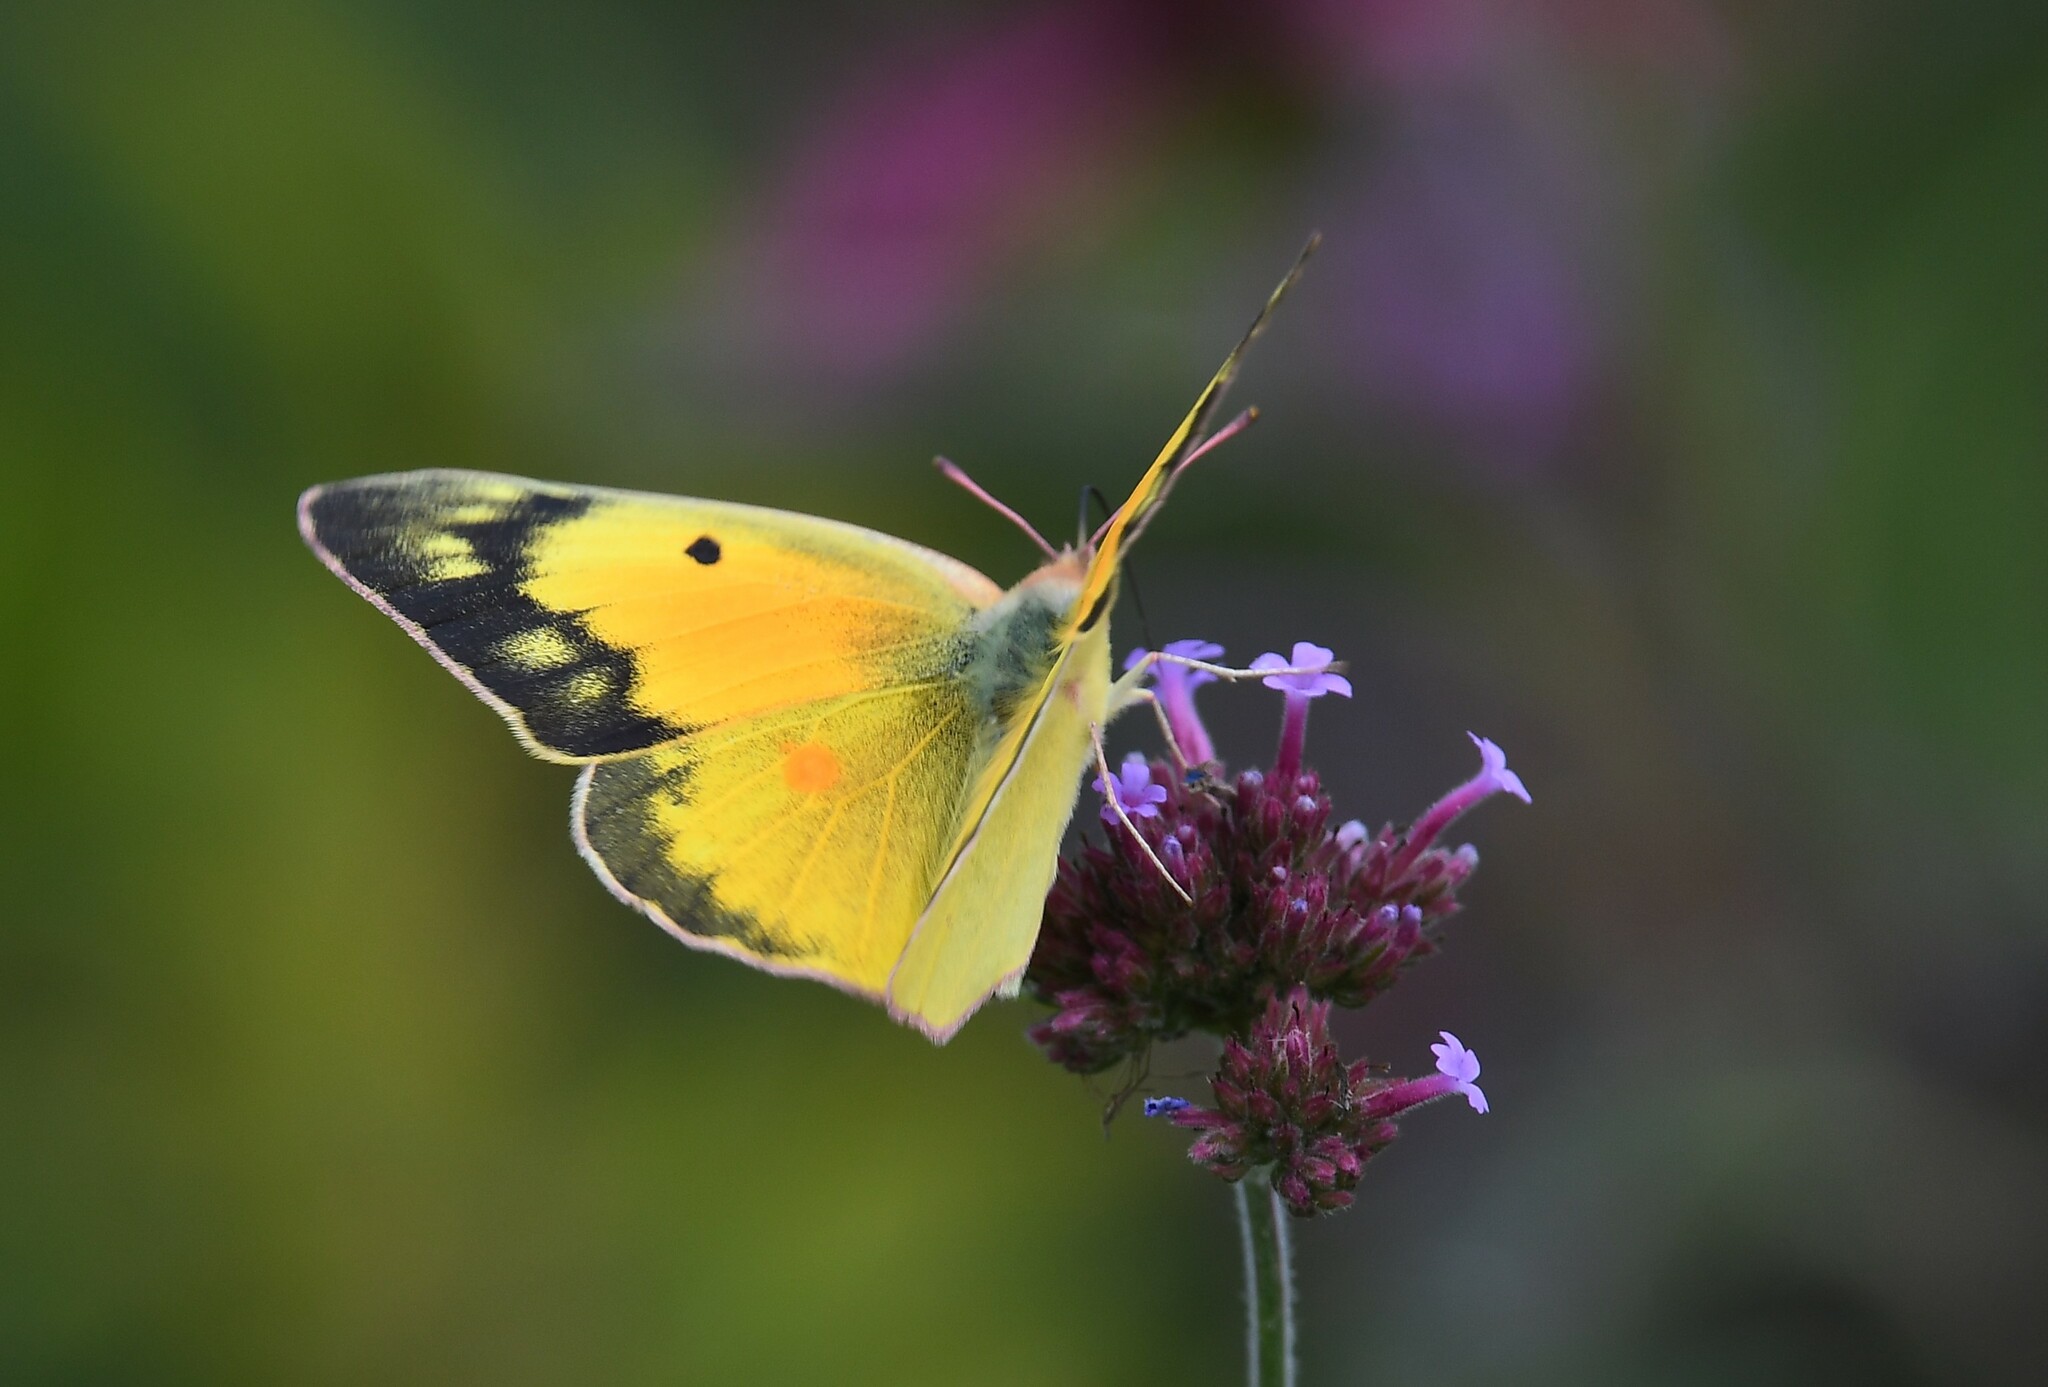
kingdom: Animalia
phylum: Arthropoda
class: Insecta
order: Lepidoptera
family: Pieridae
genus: Colias
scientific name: Colias eurytheme
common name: Alfalfa butterfly
